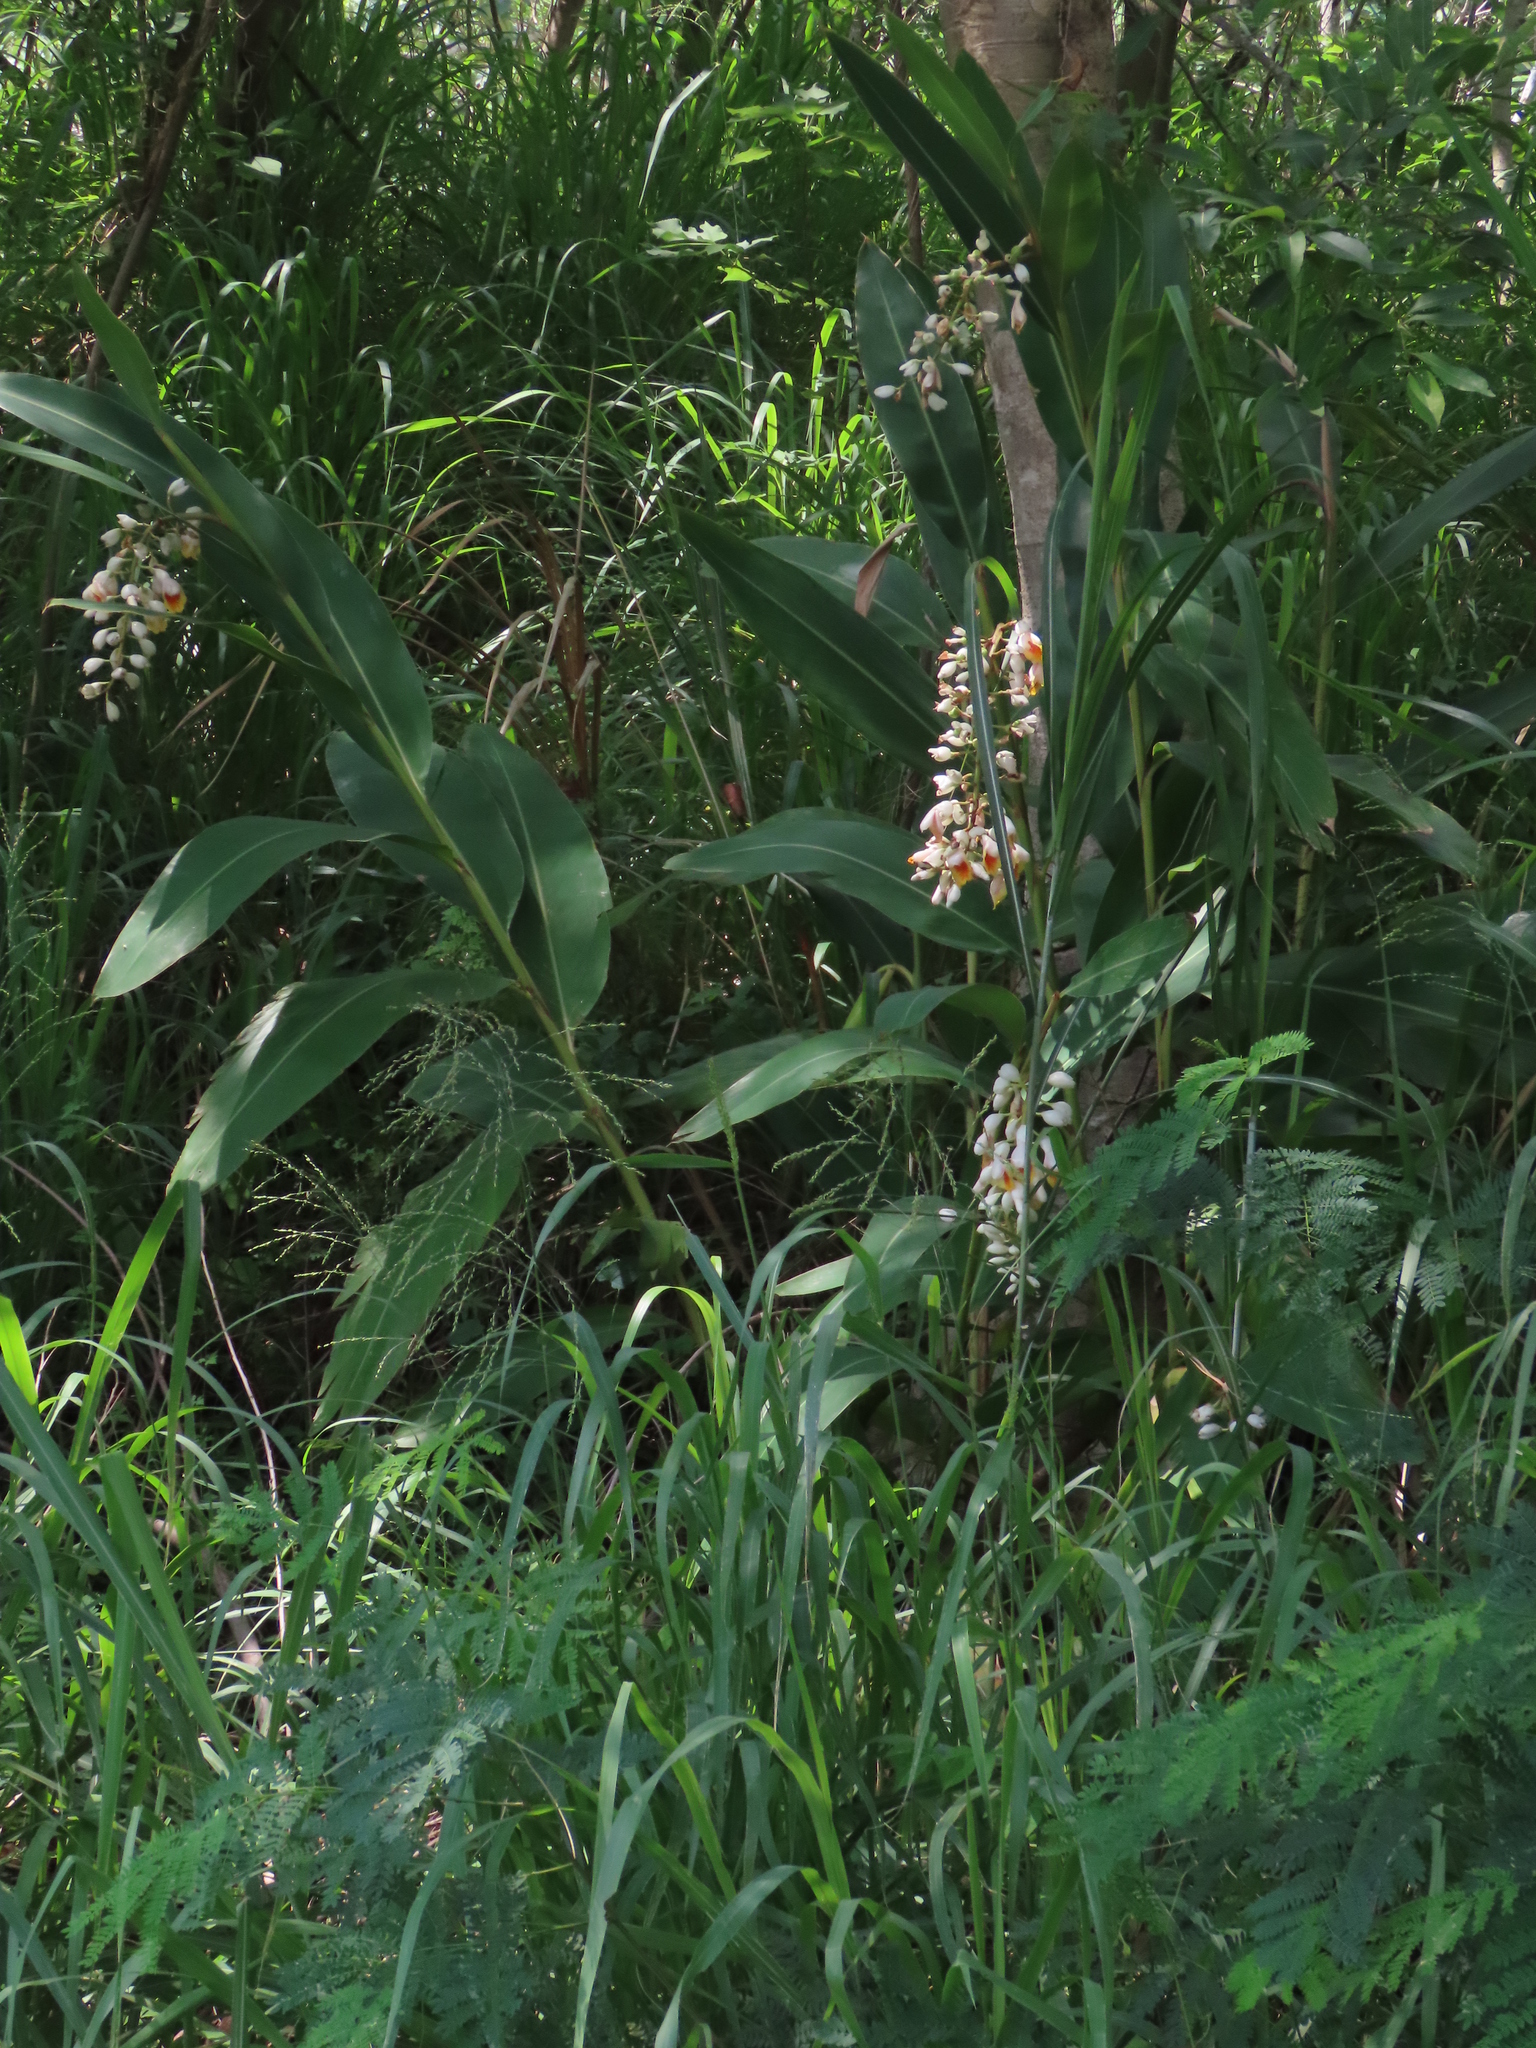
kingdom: Plantae
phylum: Tracheophyta
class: Liliopsida
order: Zingiberales
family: Zingiberaceae
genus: Alpinia
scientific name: Alpinia zerumbet
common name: Shellplant
